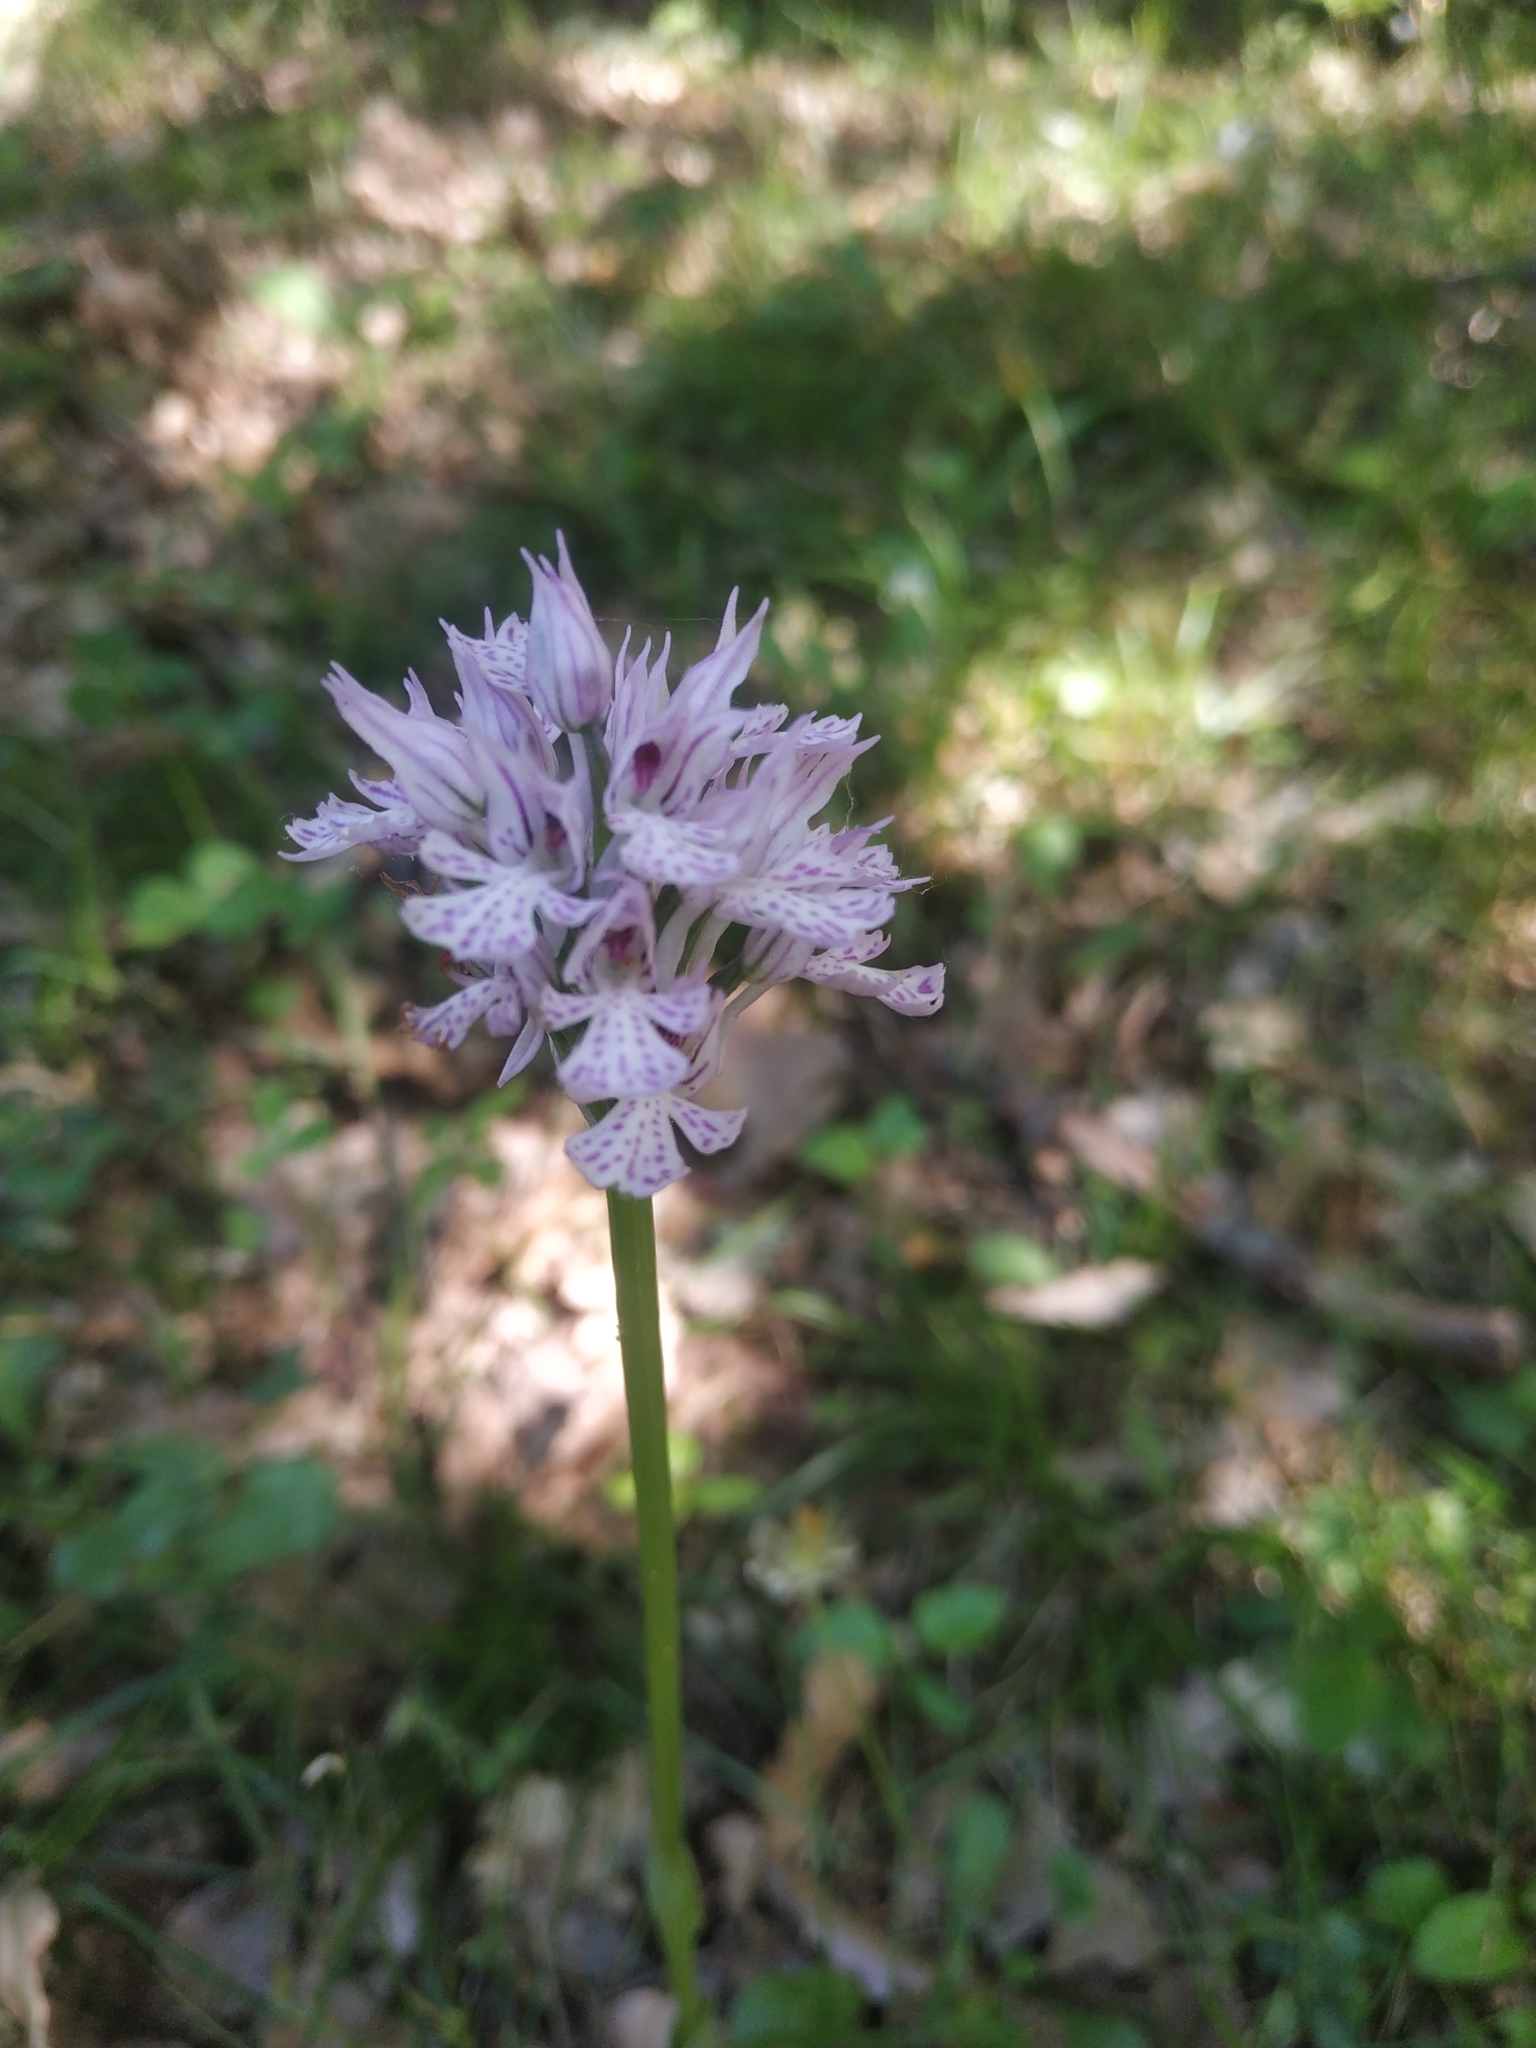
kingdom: Plantae
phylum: Tracheophyta
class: Liliopsida
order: Asparagales
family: Orchidaceae
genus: Neotinea
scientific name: Neotinea tridentata
